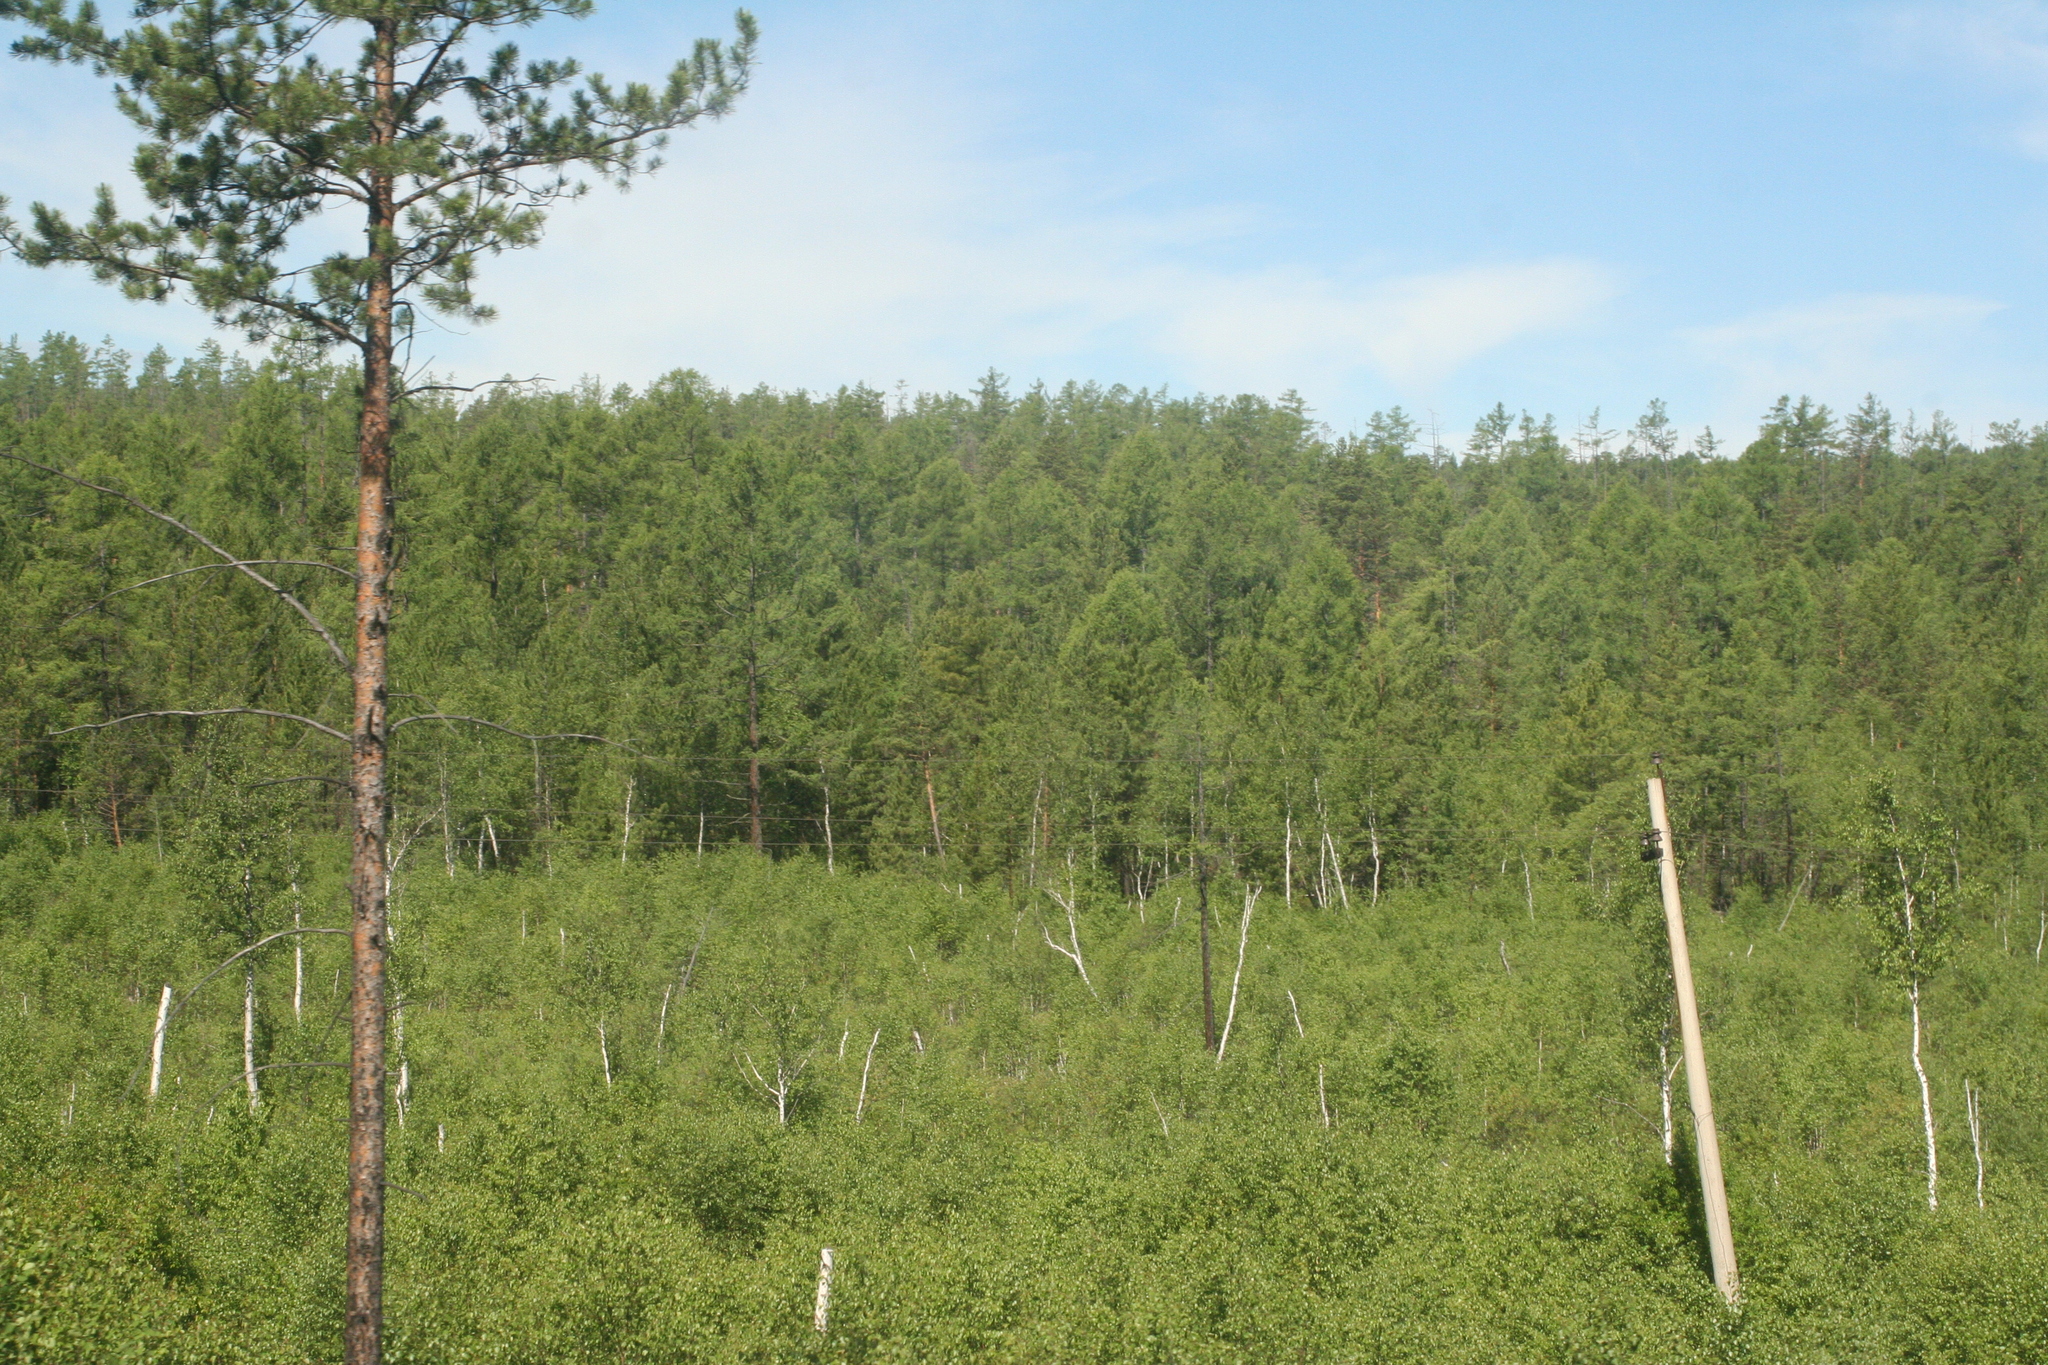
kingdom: Plantae
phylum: Tracheophyta
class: Pinopsida
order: Pinales
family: Pinaceae
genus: Pinus
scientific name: Pinus sylvestris
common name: Scots pine
